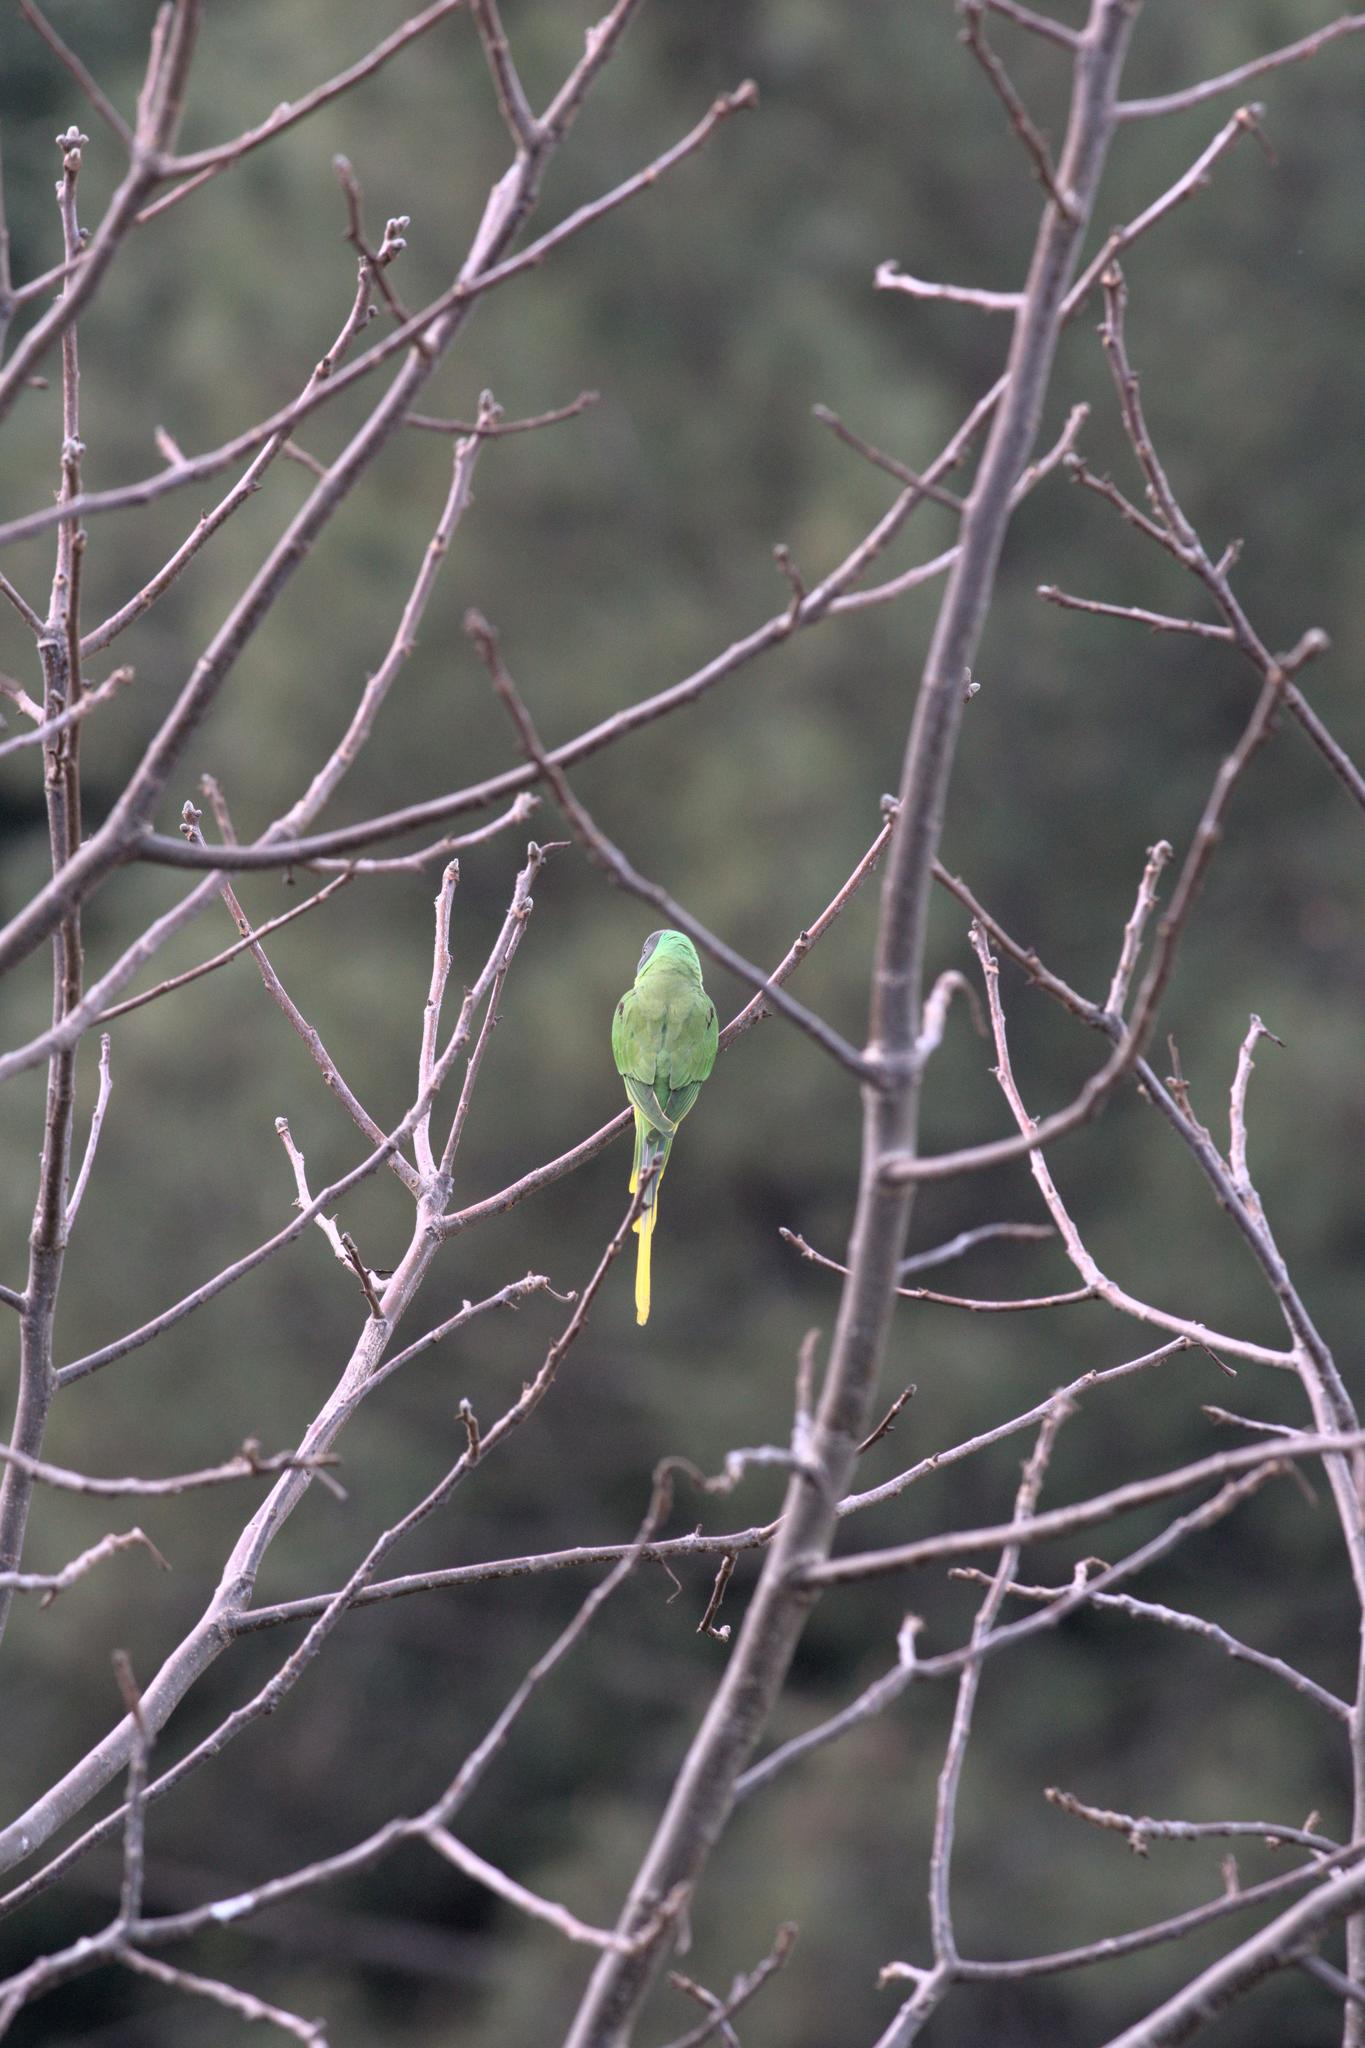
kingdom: Animalia
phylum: Chordata
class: Aves
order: Psittaciformes
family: Psittacidae
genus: Psittacula
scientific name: Psittacula himalayana
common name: Slaty-headed parakeet
